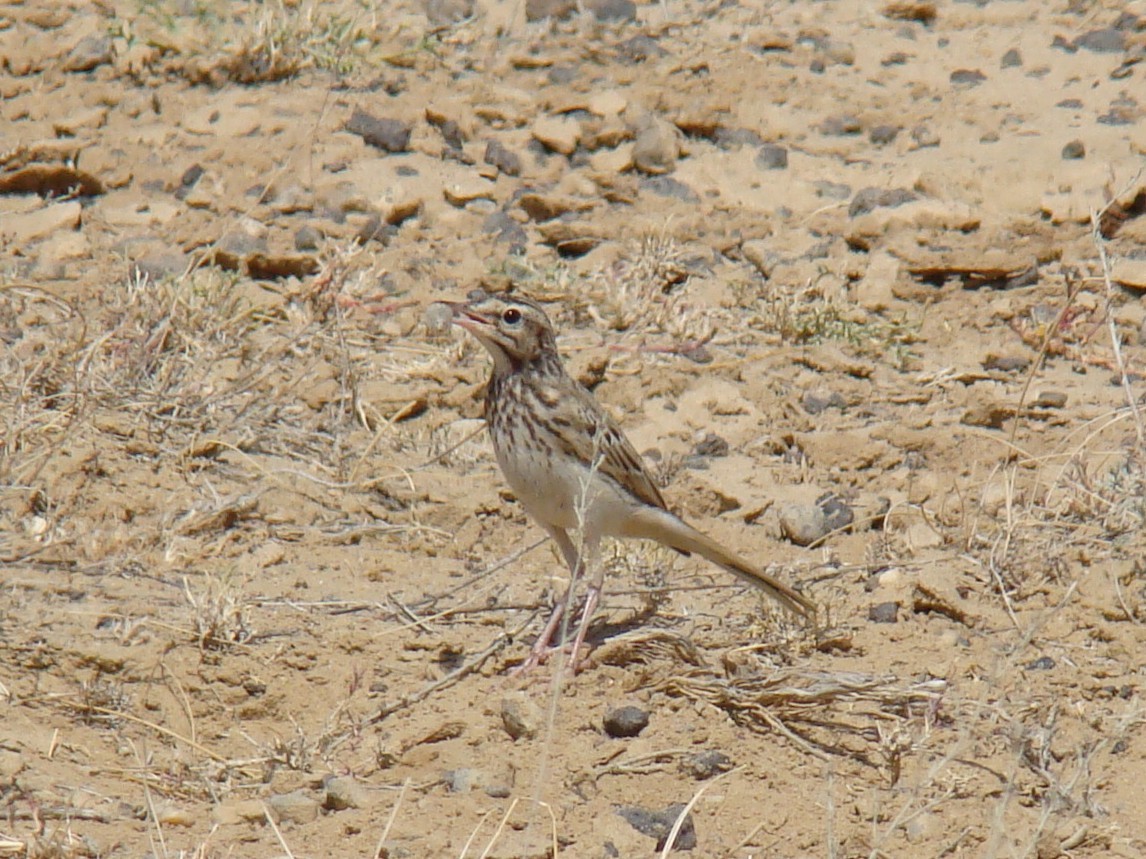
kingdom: Animalia
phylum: Chordata
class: Aves
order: Passeriformes
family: Motacillidae
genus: Anthus
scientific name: Anthus campestris
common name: Tawny pipit
